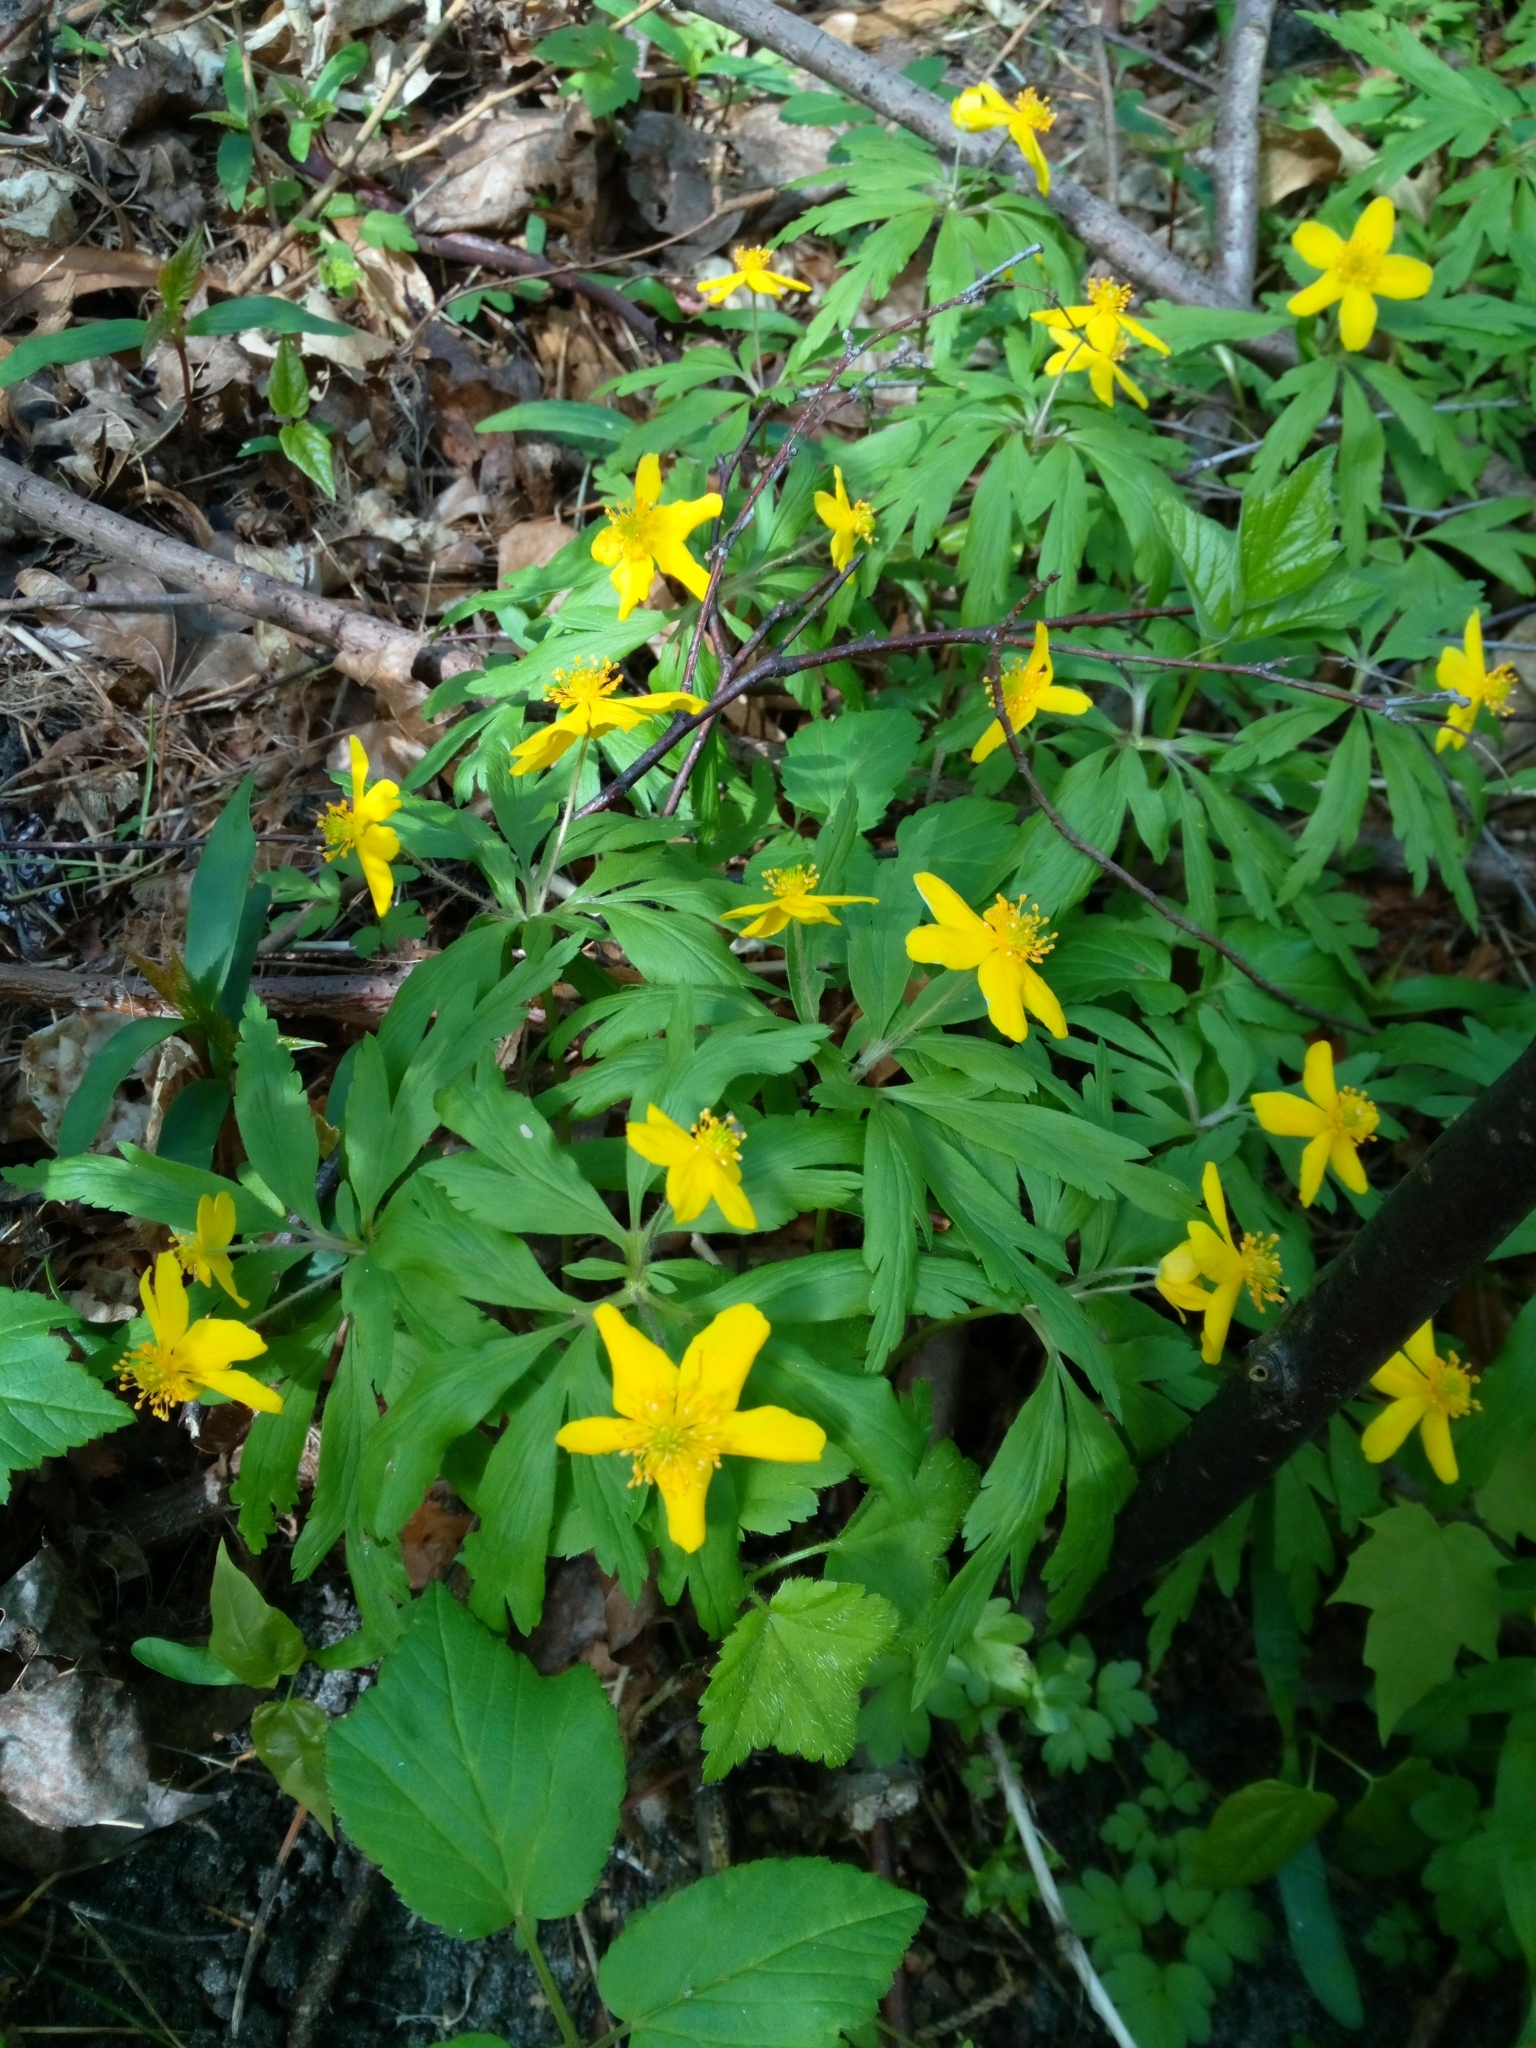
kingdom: Plantae
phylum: Tracheophyta
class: Magnoliopsida
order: Ranunculales
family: Ranunculaceae
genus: Anemone
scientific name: Anemone ranunculoides
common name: Yellow anemone
